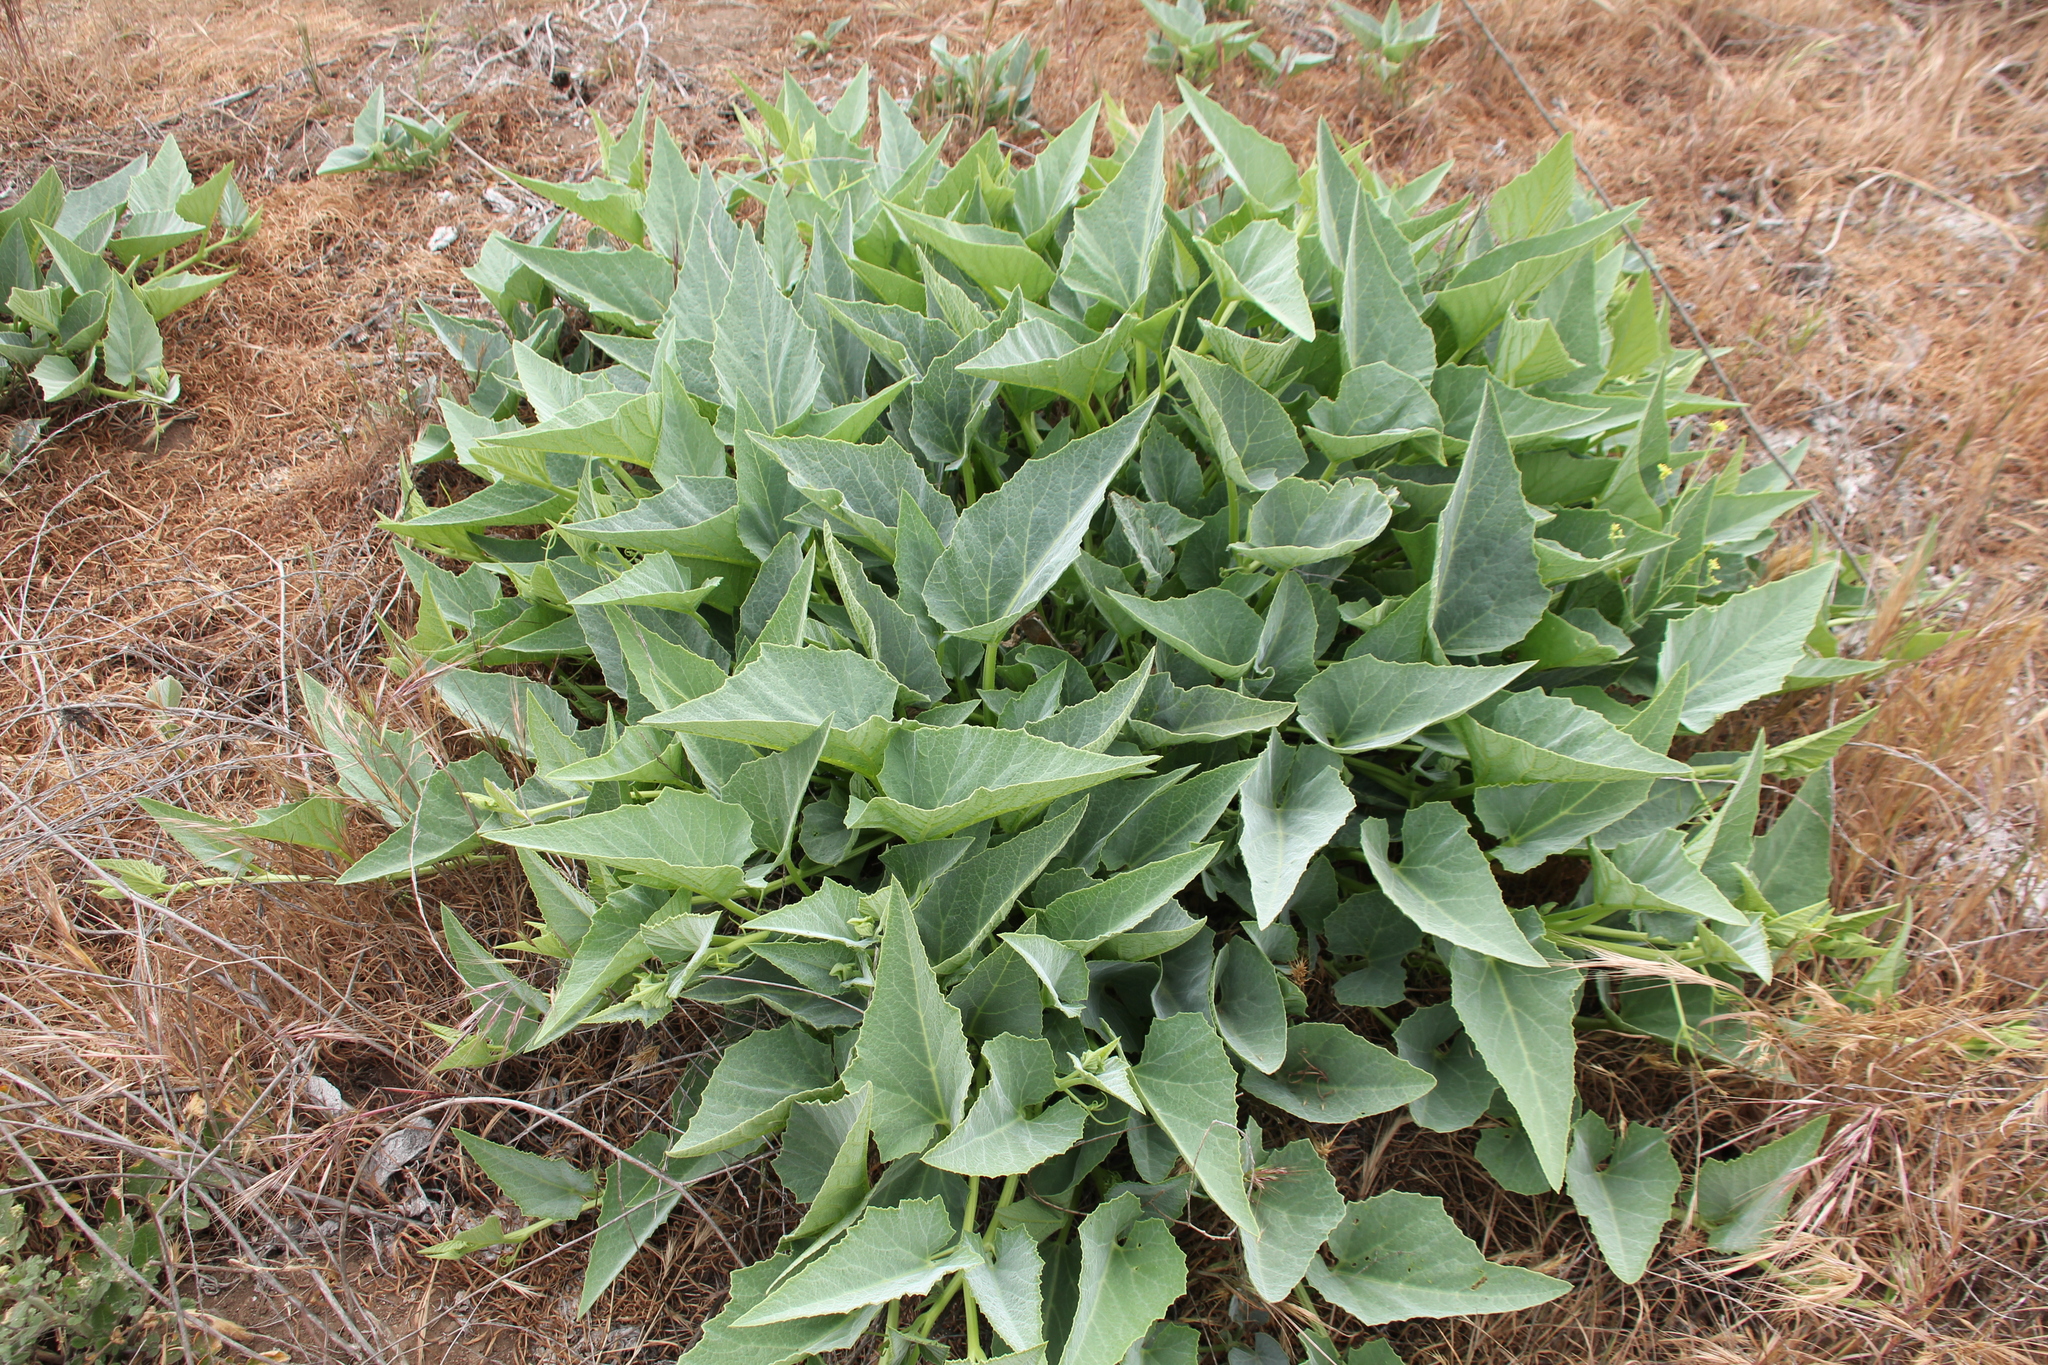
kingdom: Plantae
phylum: Tracheophyta
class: Magnoliopsida
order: Cucurbitales
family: Cucurbitaceae
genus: Cucurbita
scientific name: Cucurbita foetidissima
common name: Buffalo gourd
